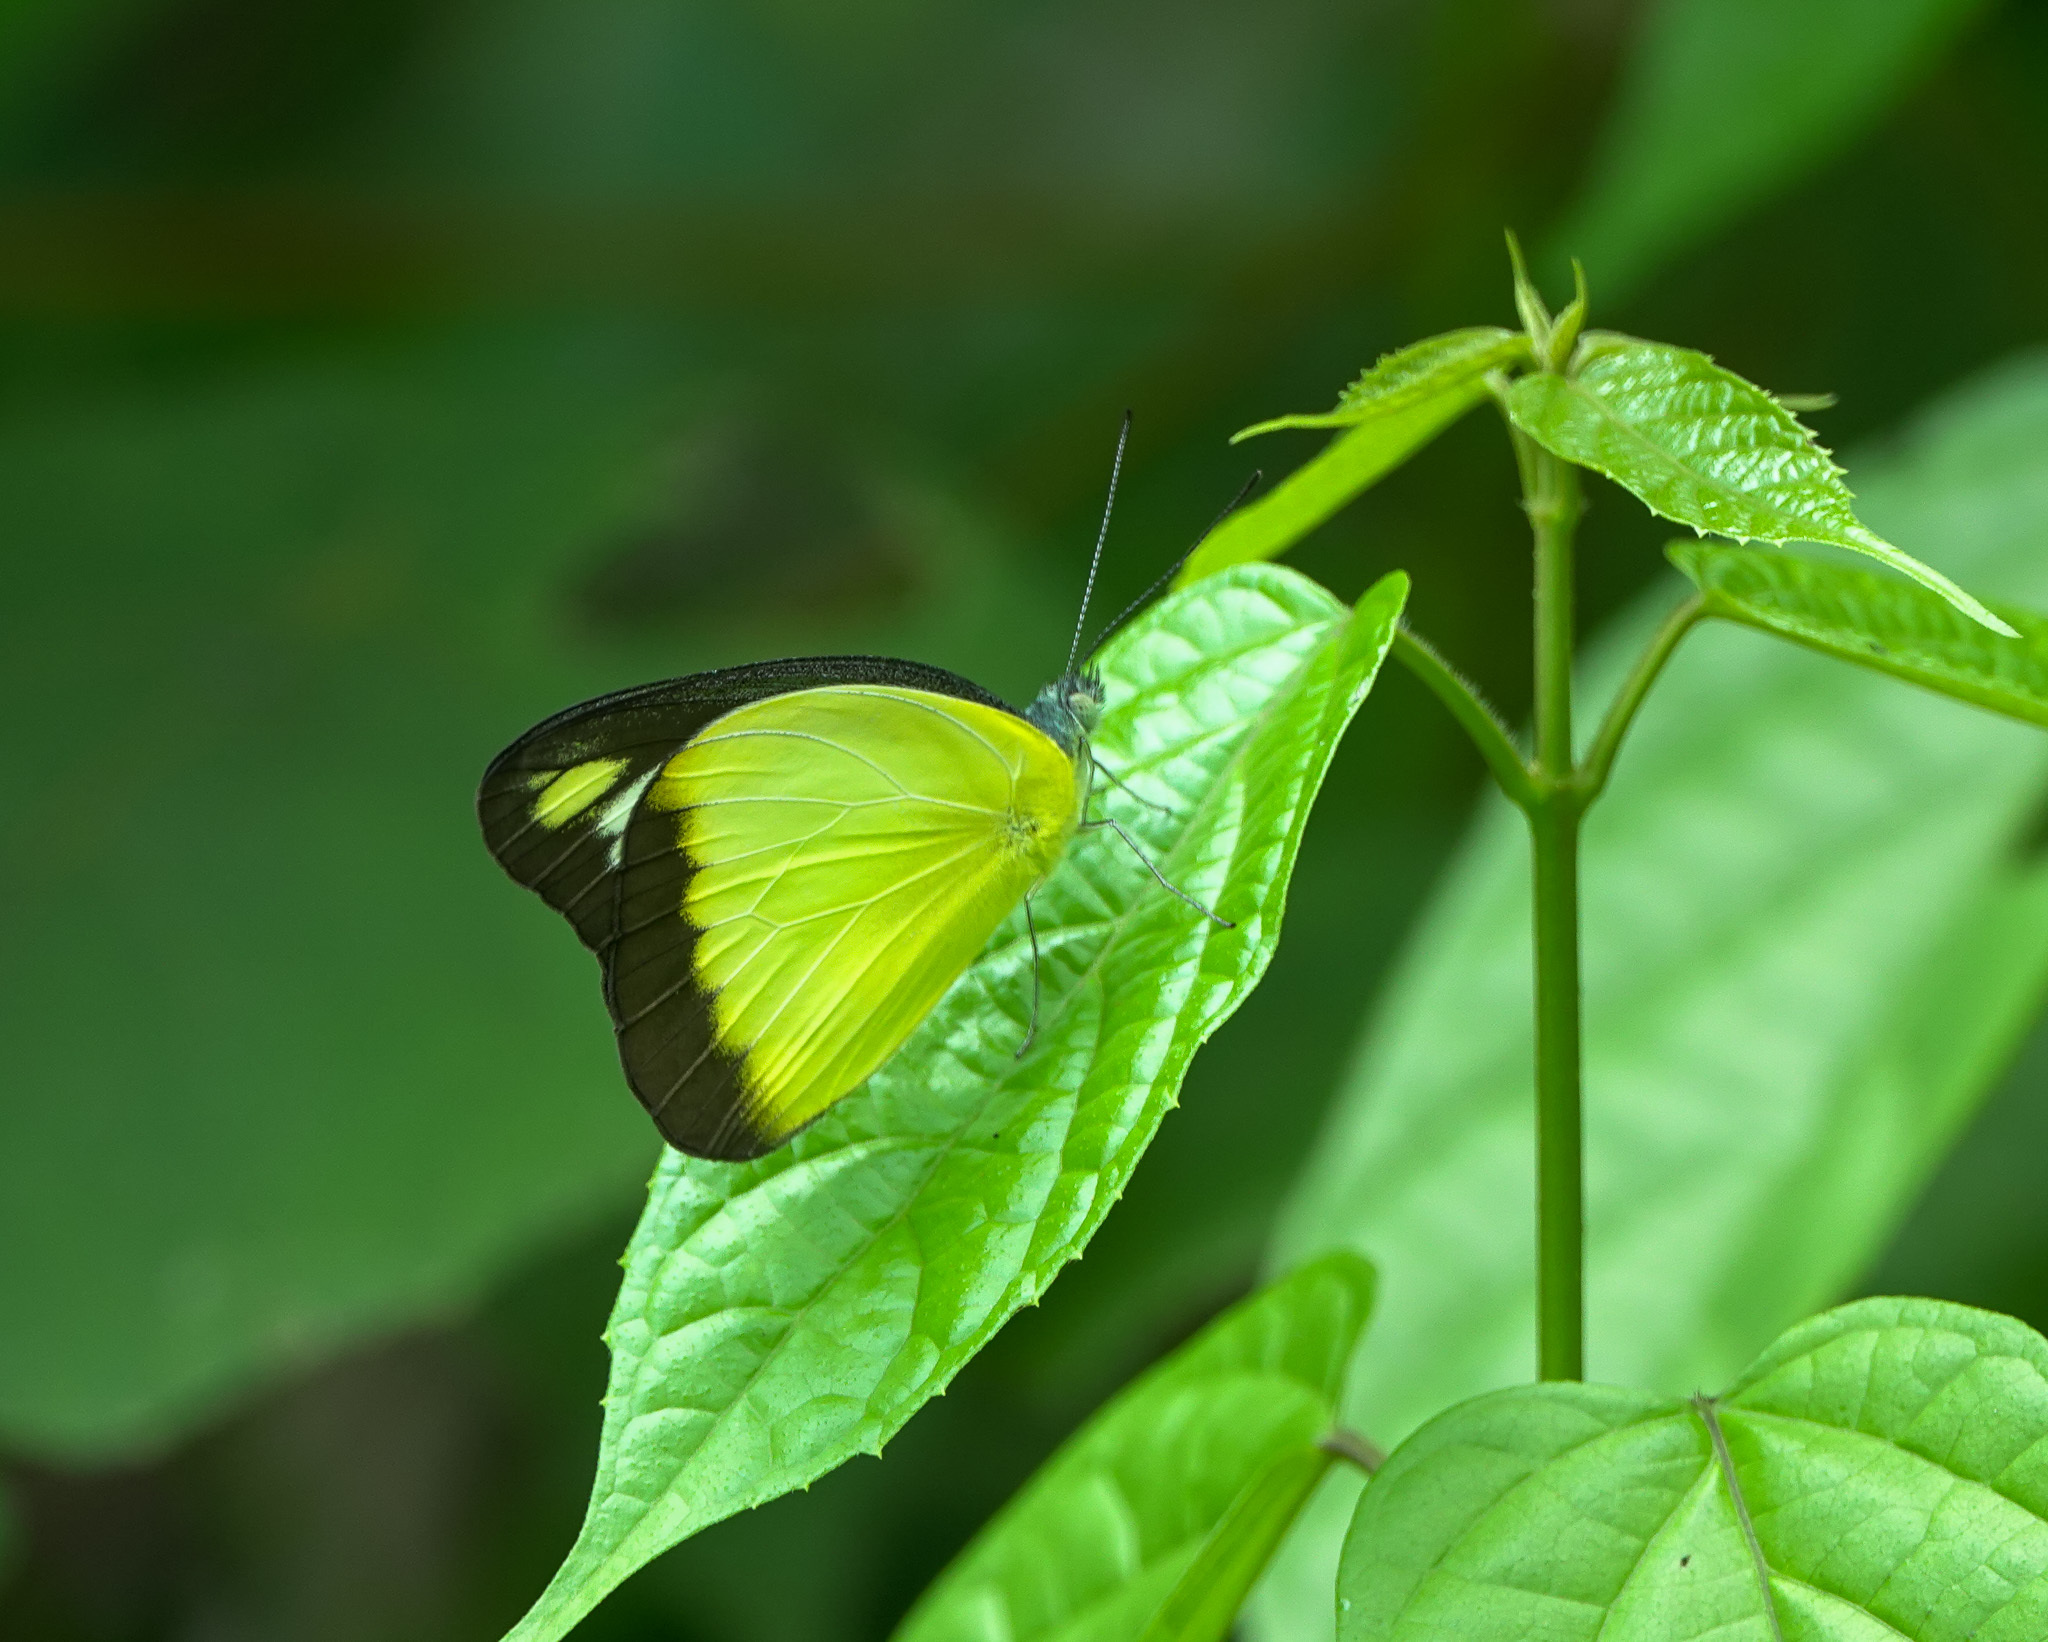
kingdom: Animalia
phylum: Arthropoda
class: Insecta
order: Lepidoptera
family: Pieridae
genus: Appias
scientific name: Appias lyncida
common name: Chocolate albatross
